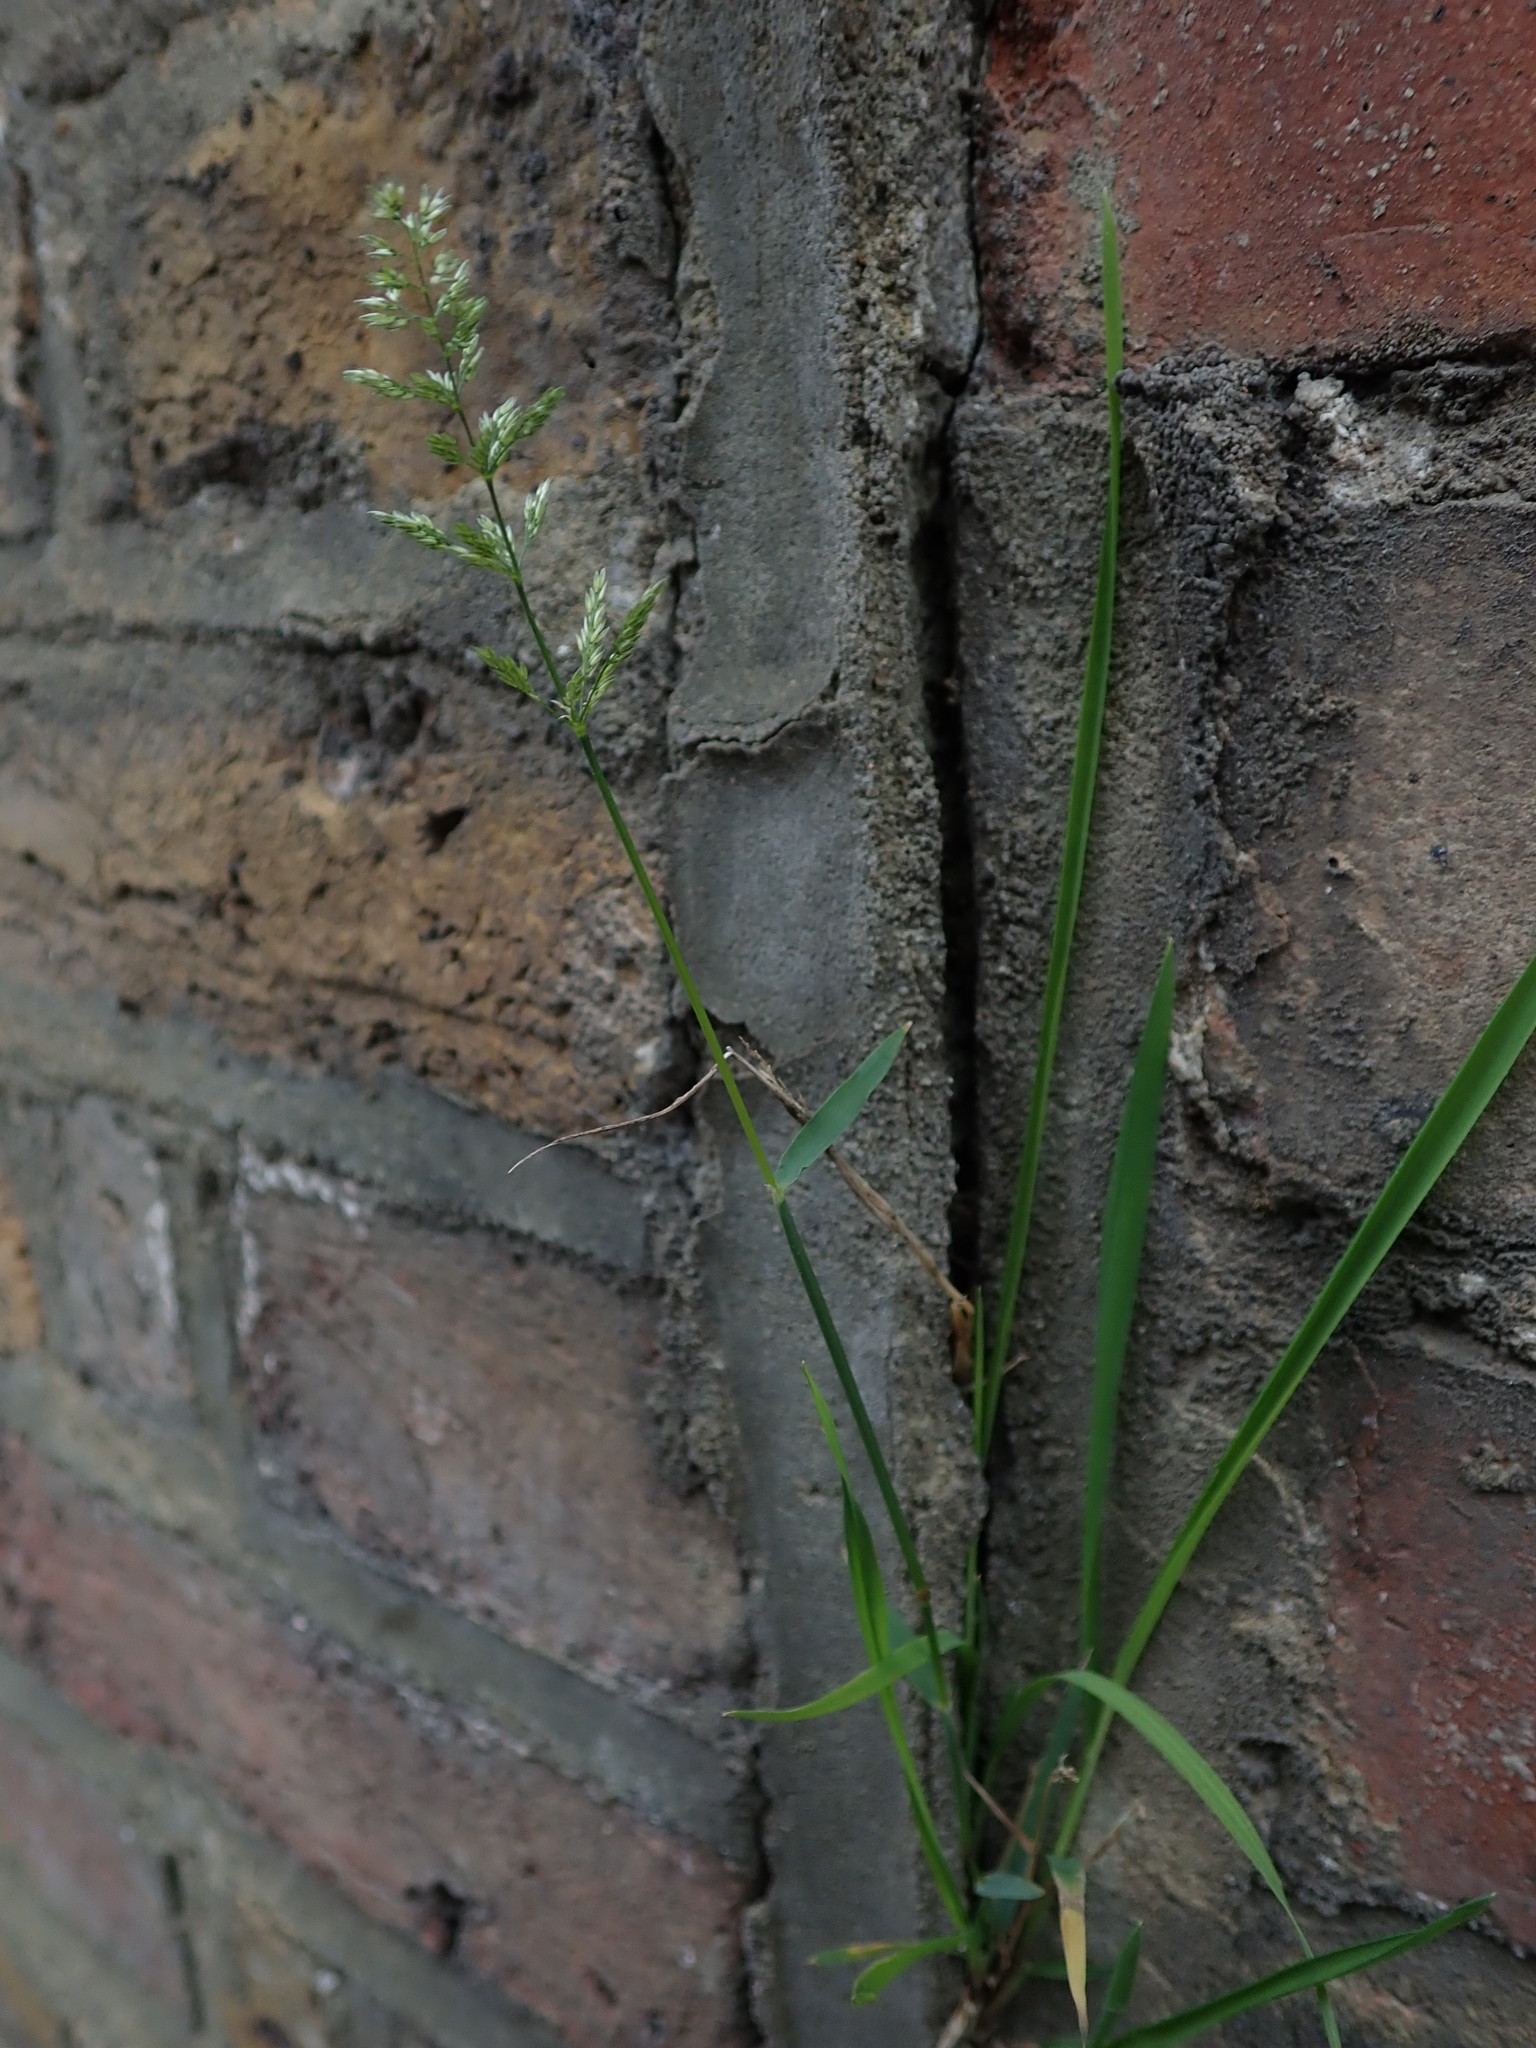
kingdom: Plantae
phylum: Tracheophyta
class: Liliopsida
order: Poales
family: Poaceae
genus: Polypogon
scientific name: Polypogon viridis
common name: Water bent
